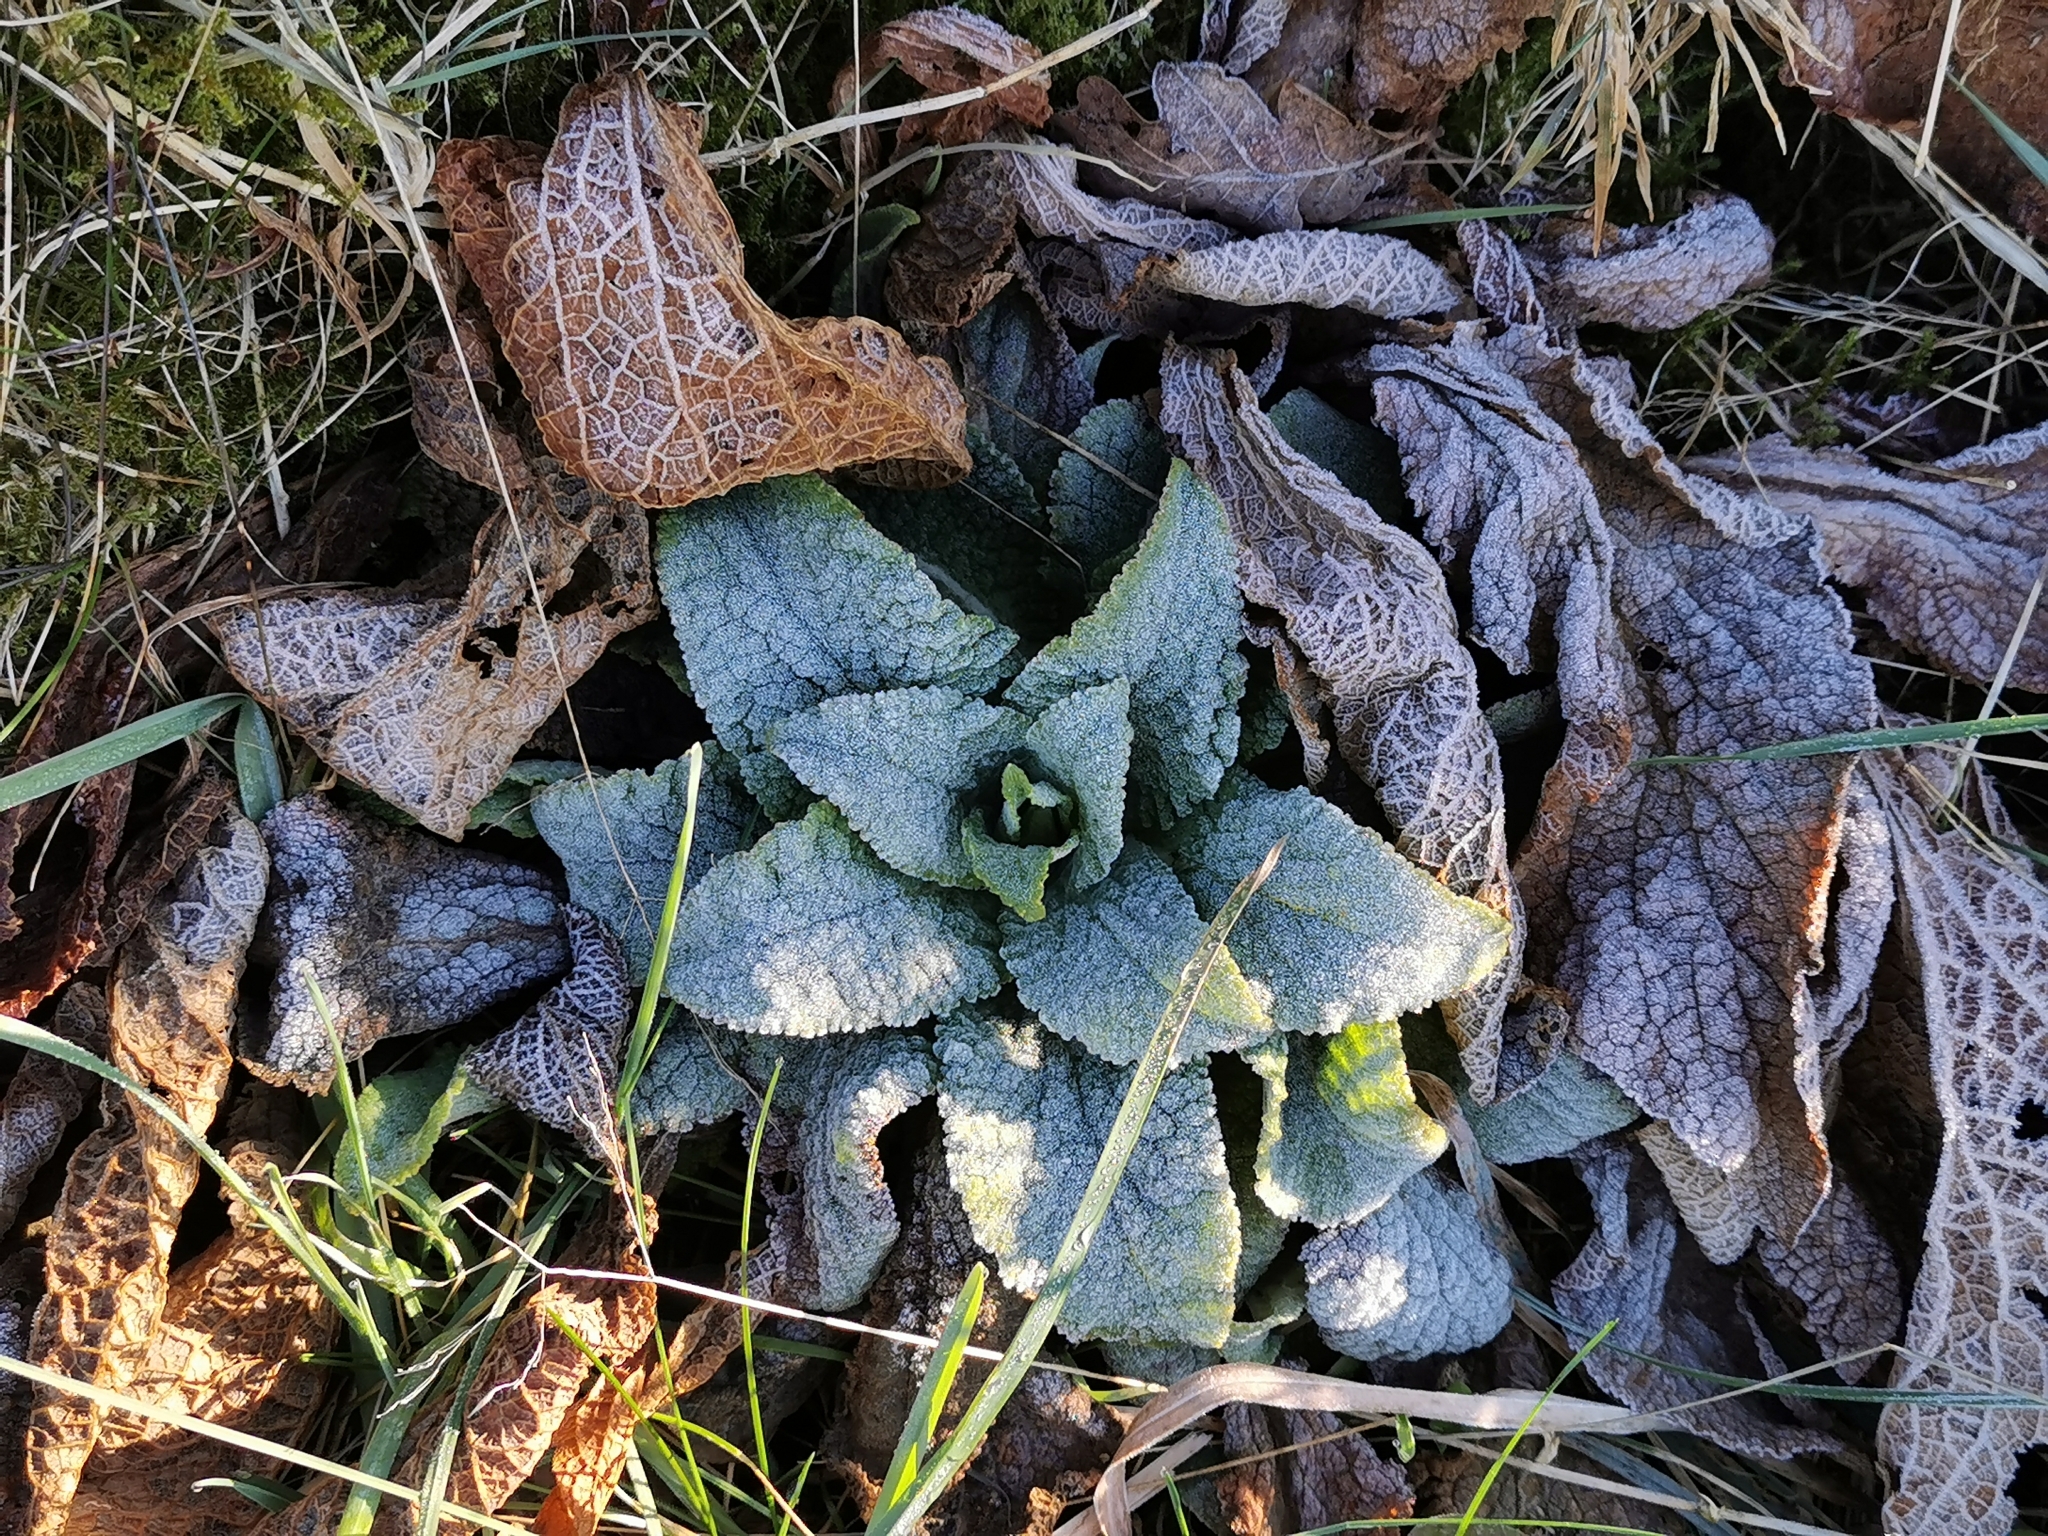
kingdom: Plantae
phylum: Tracheophyta
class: Magnoliopsida
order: Lamiales
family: Plantaginaceae
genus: Digitalis
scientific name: Digitalis purpurea
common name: Foxglove
